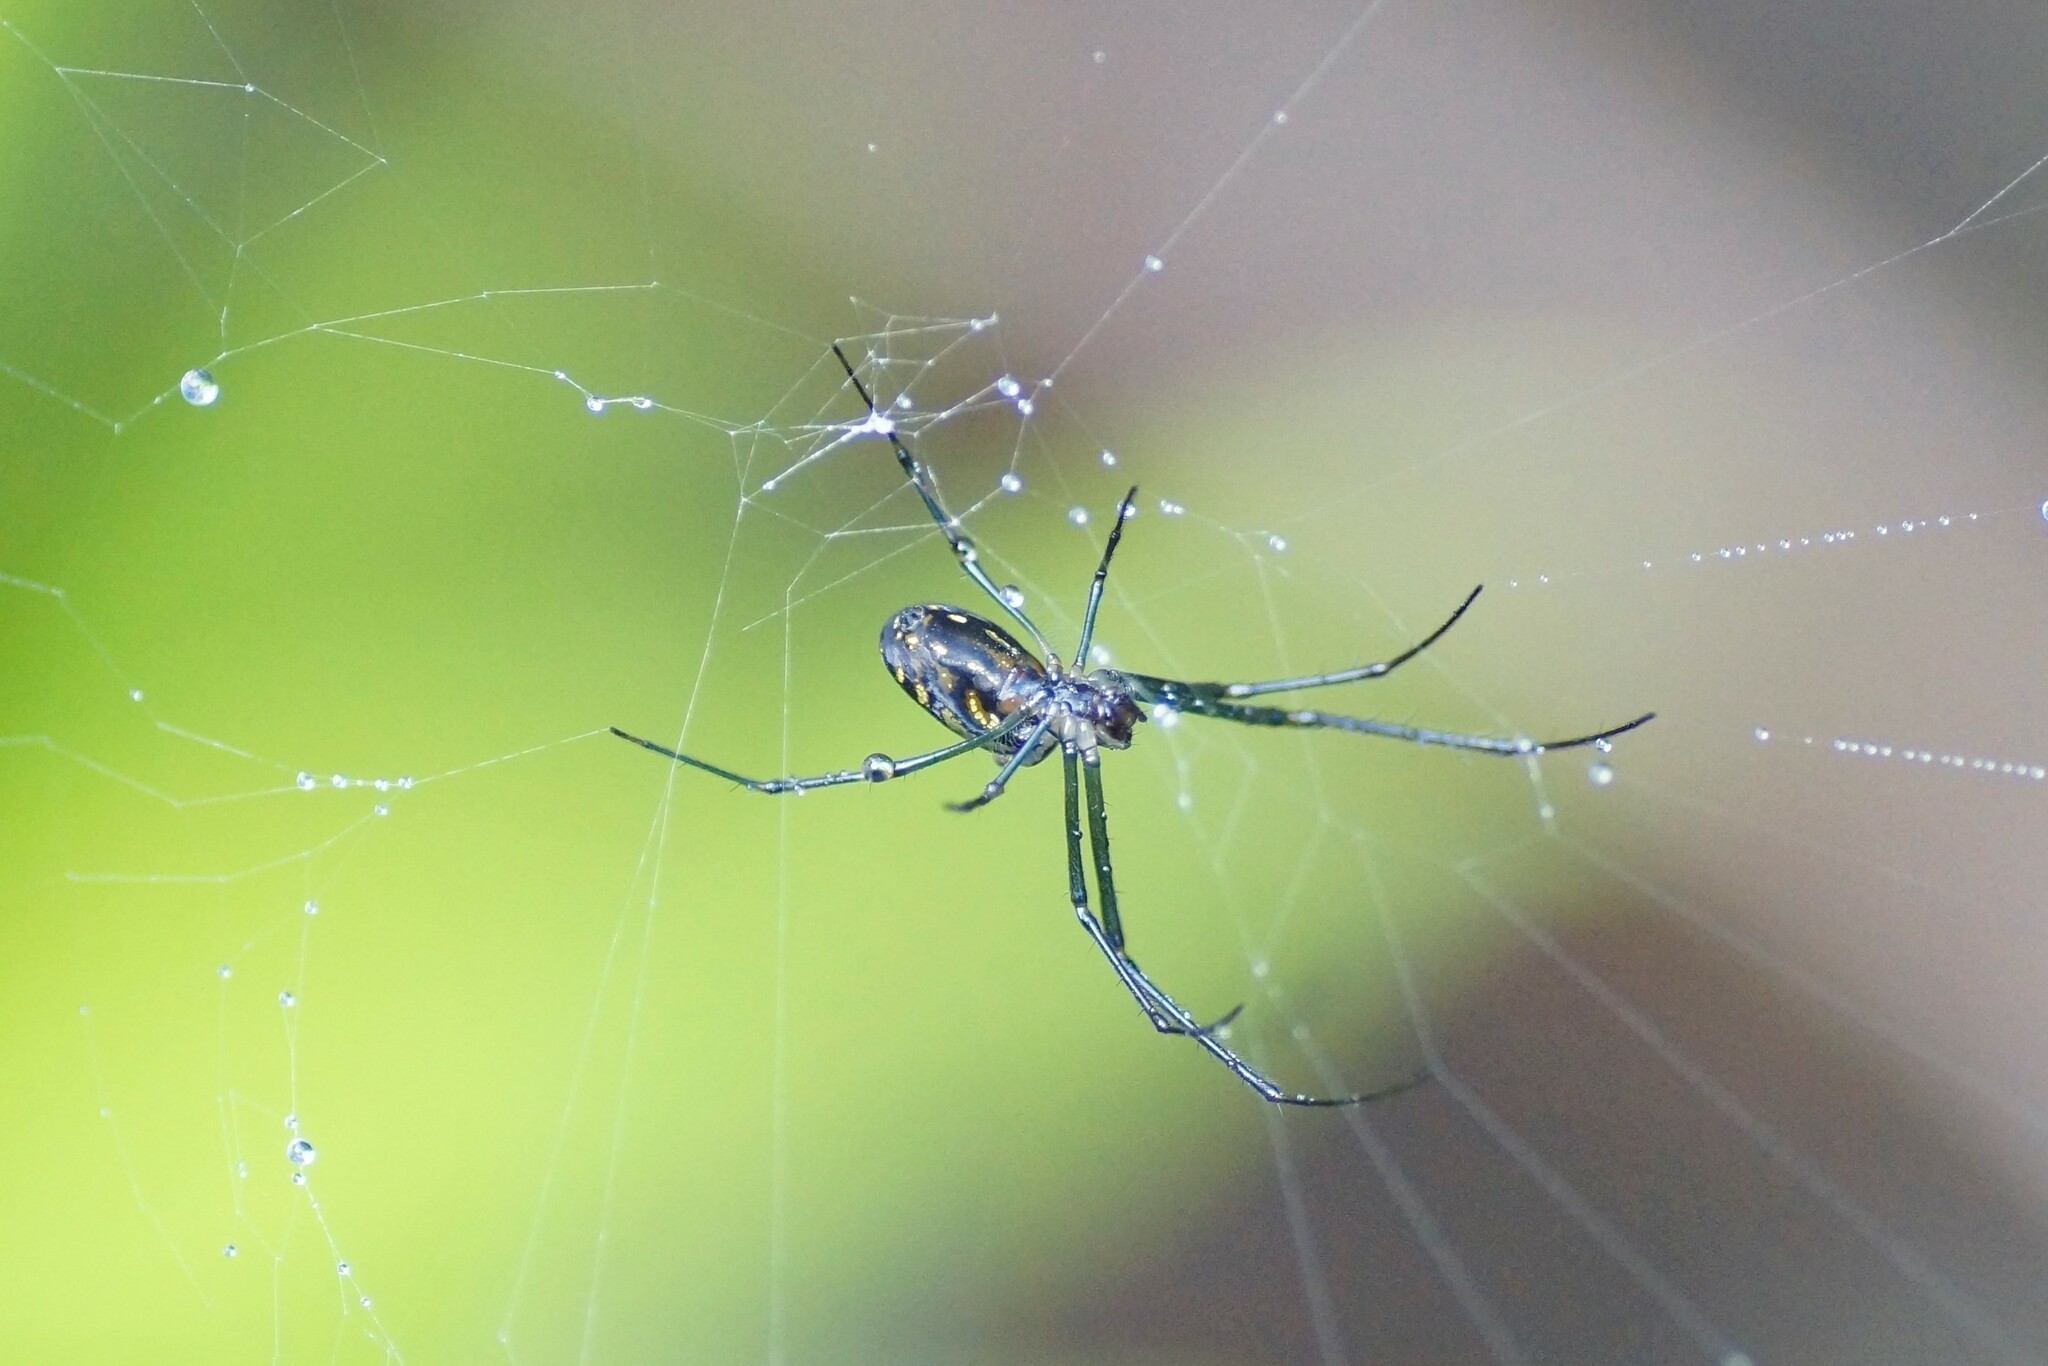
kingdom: Animalia
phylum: Arthropoda
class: Arachnida
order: Araneae
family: Tetragnathidae
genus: Leucauge
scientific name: Leucauge dromedaria
